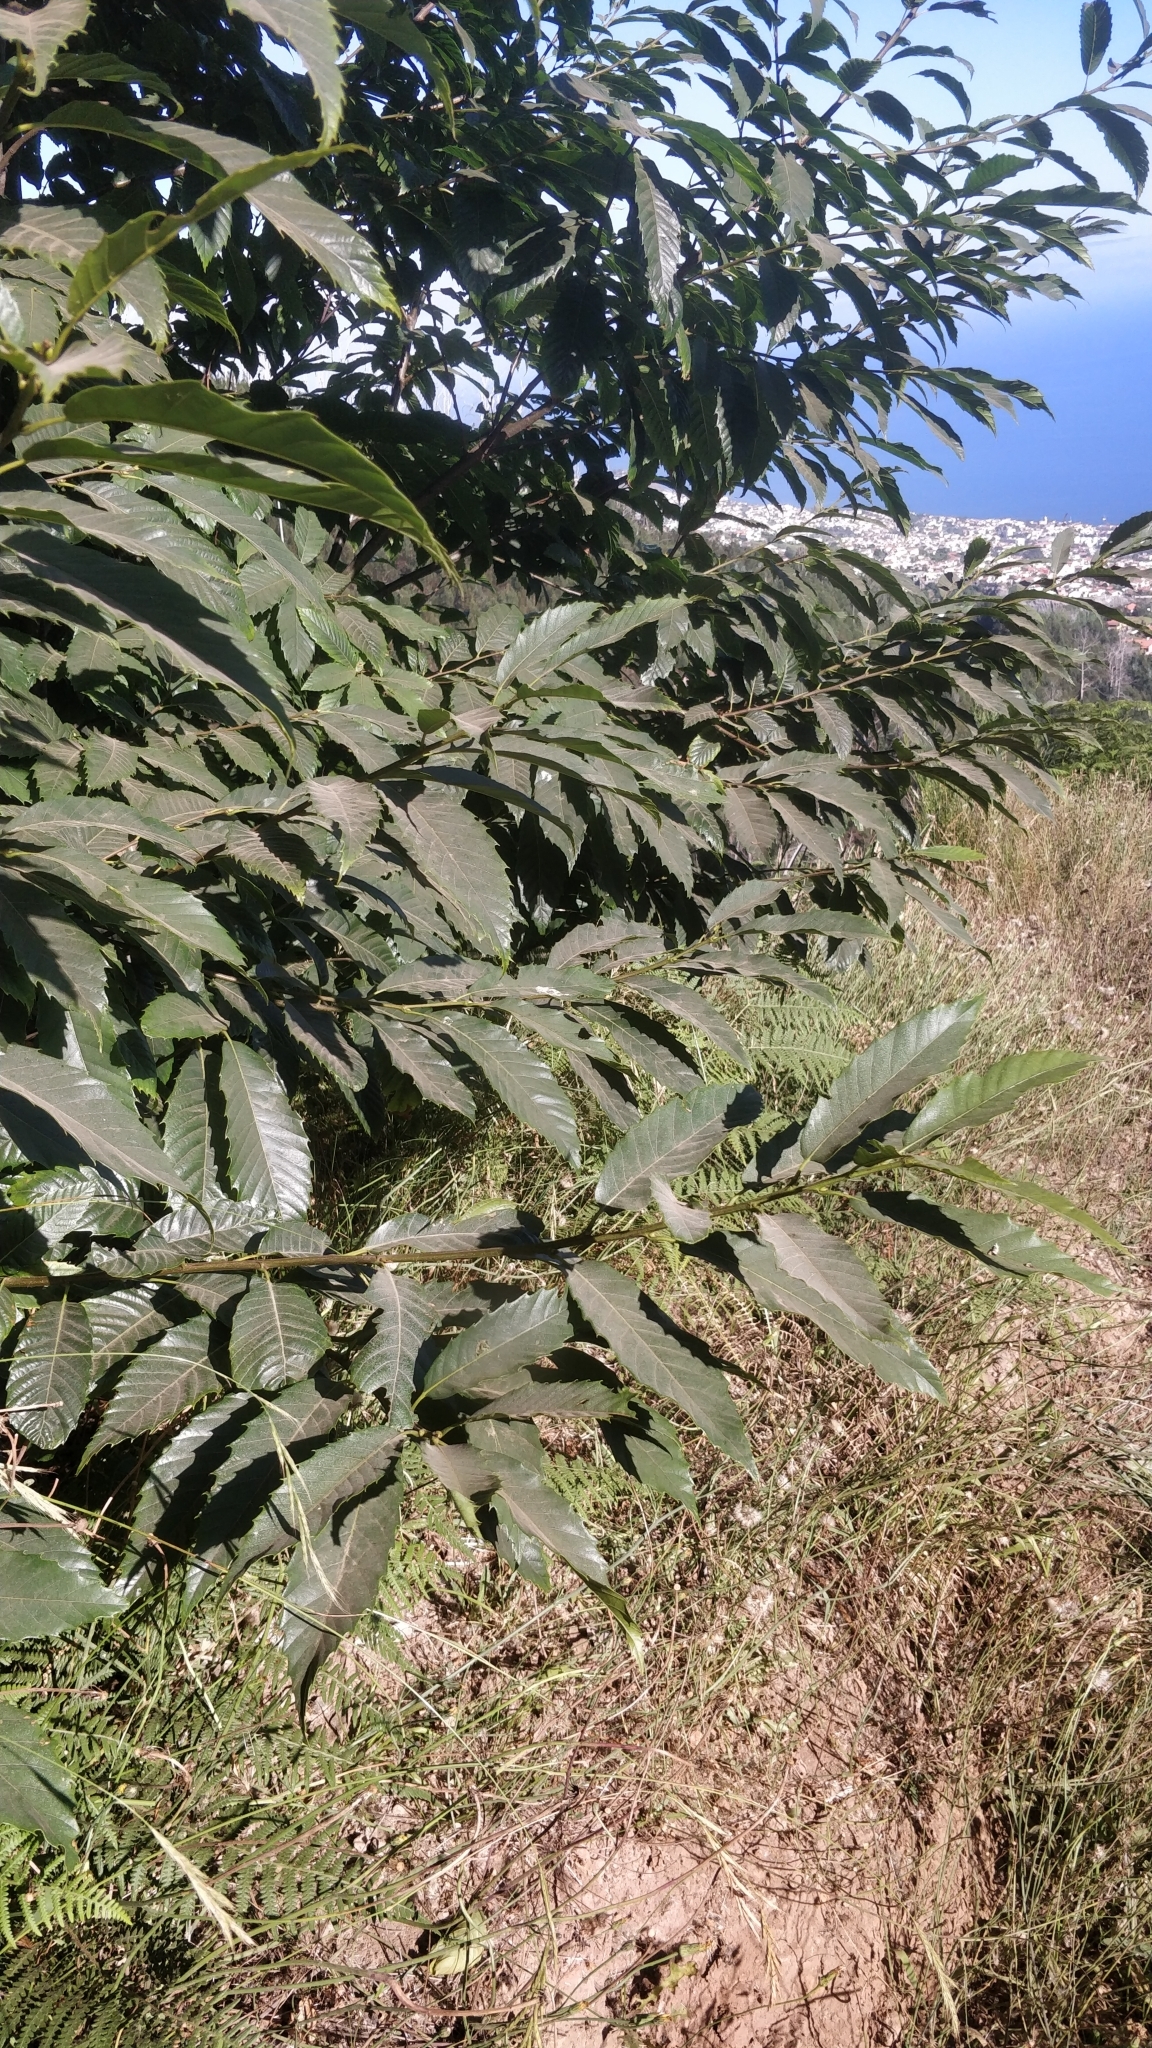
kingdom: Plantae
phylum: Tracheophyta
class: Magnoliopsida
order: Fagales
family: Fagaceae
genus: Castanea
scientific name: Castanea sativa
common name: Sweet chestnut
